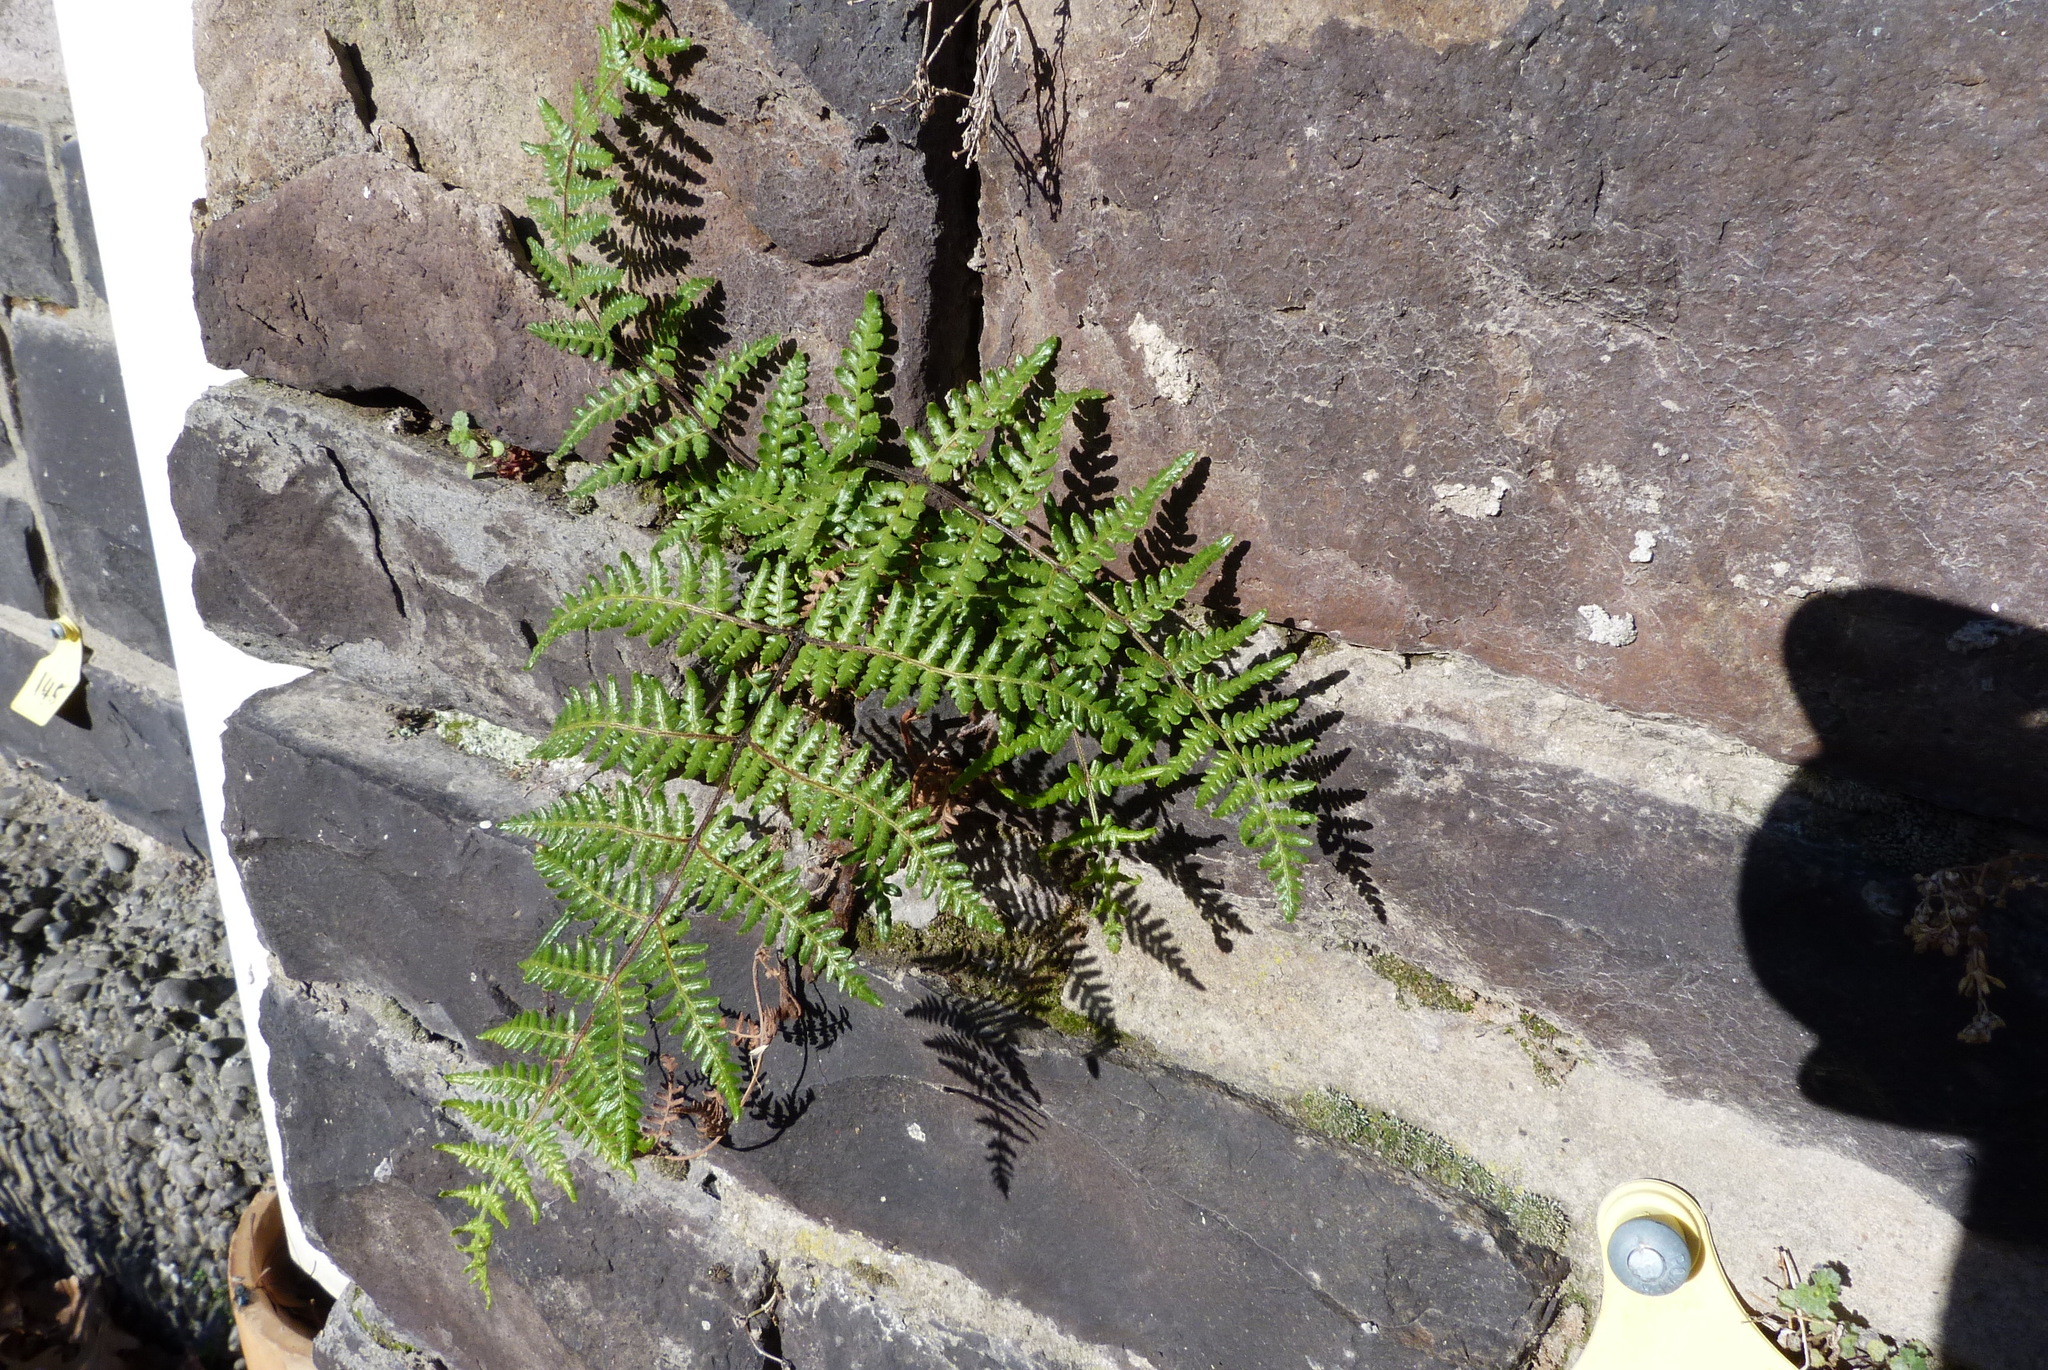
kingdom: Plantae
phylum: Tracheophyta
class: Polypodiopsida
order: Polypodiales
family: Dennstaedtiaceae
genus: Hypolepis
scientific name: Hypolepis ambigua
